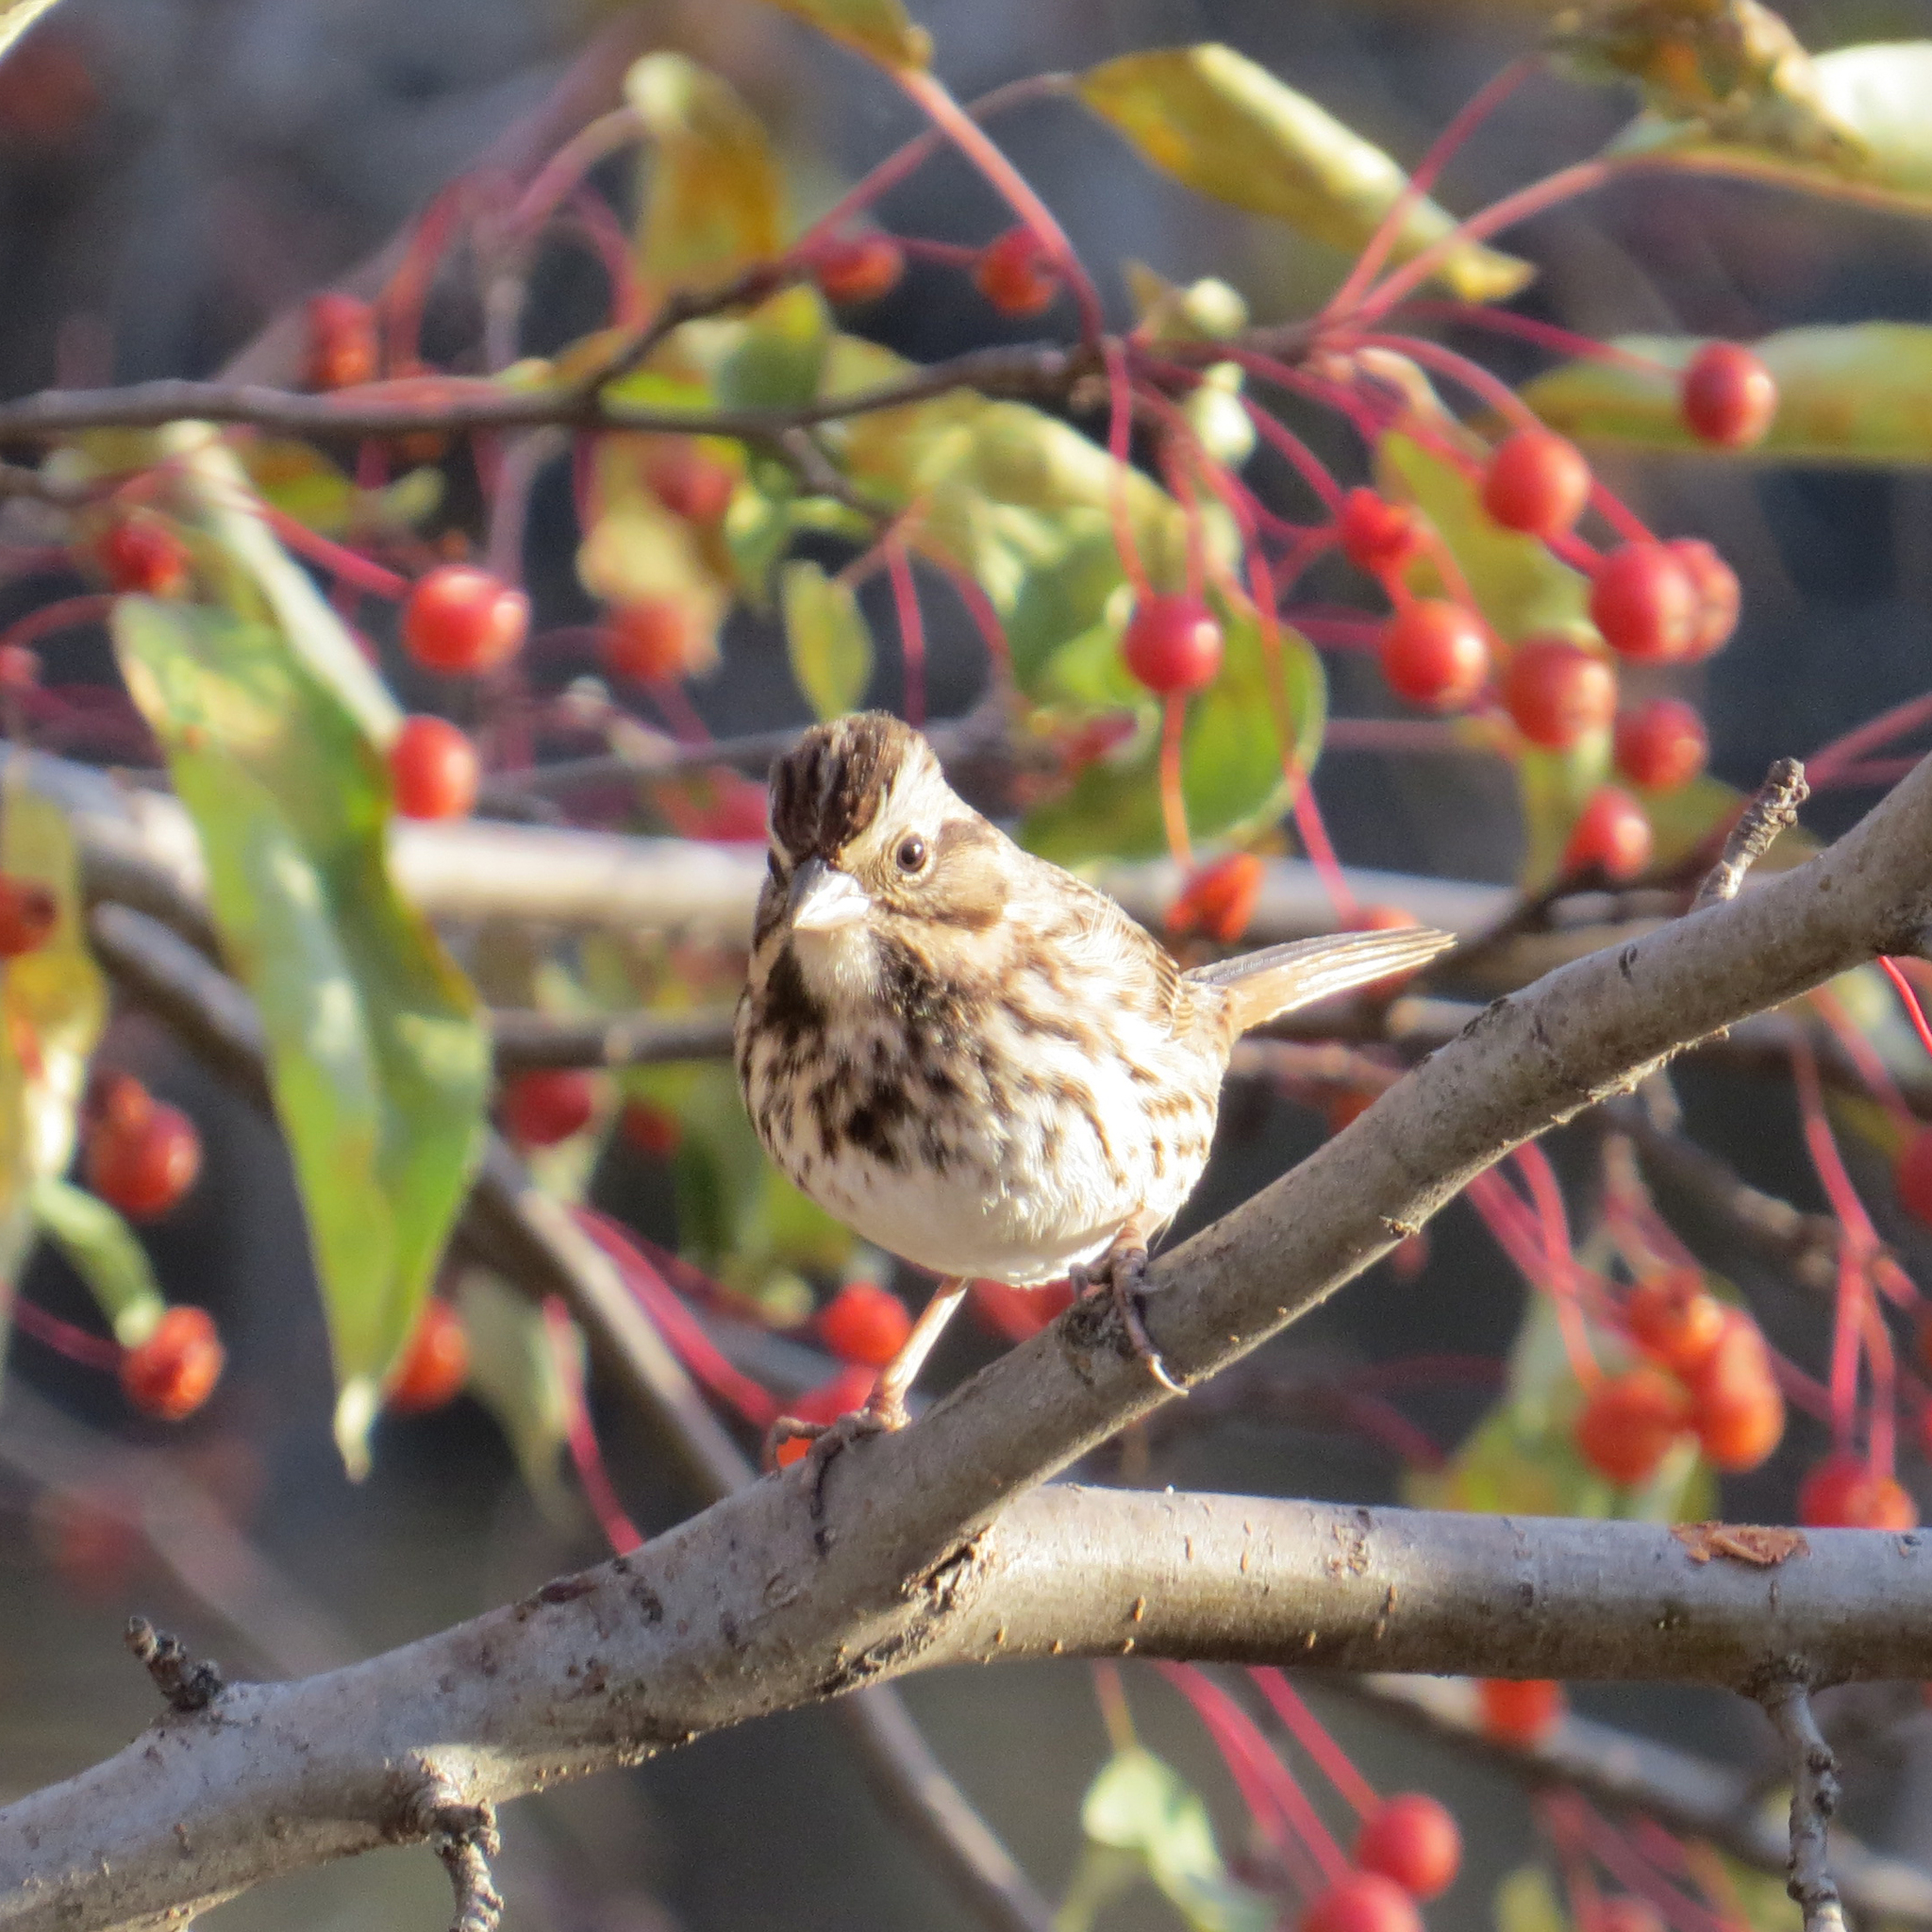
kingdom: Animalia
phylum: Chordata
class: Aves
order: Passeriformes
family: Passerellidae
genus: Melospiza
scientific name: Melospiza melodia
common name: Song sparrow
